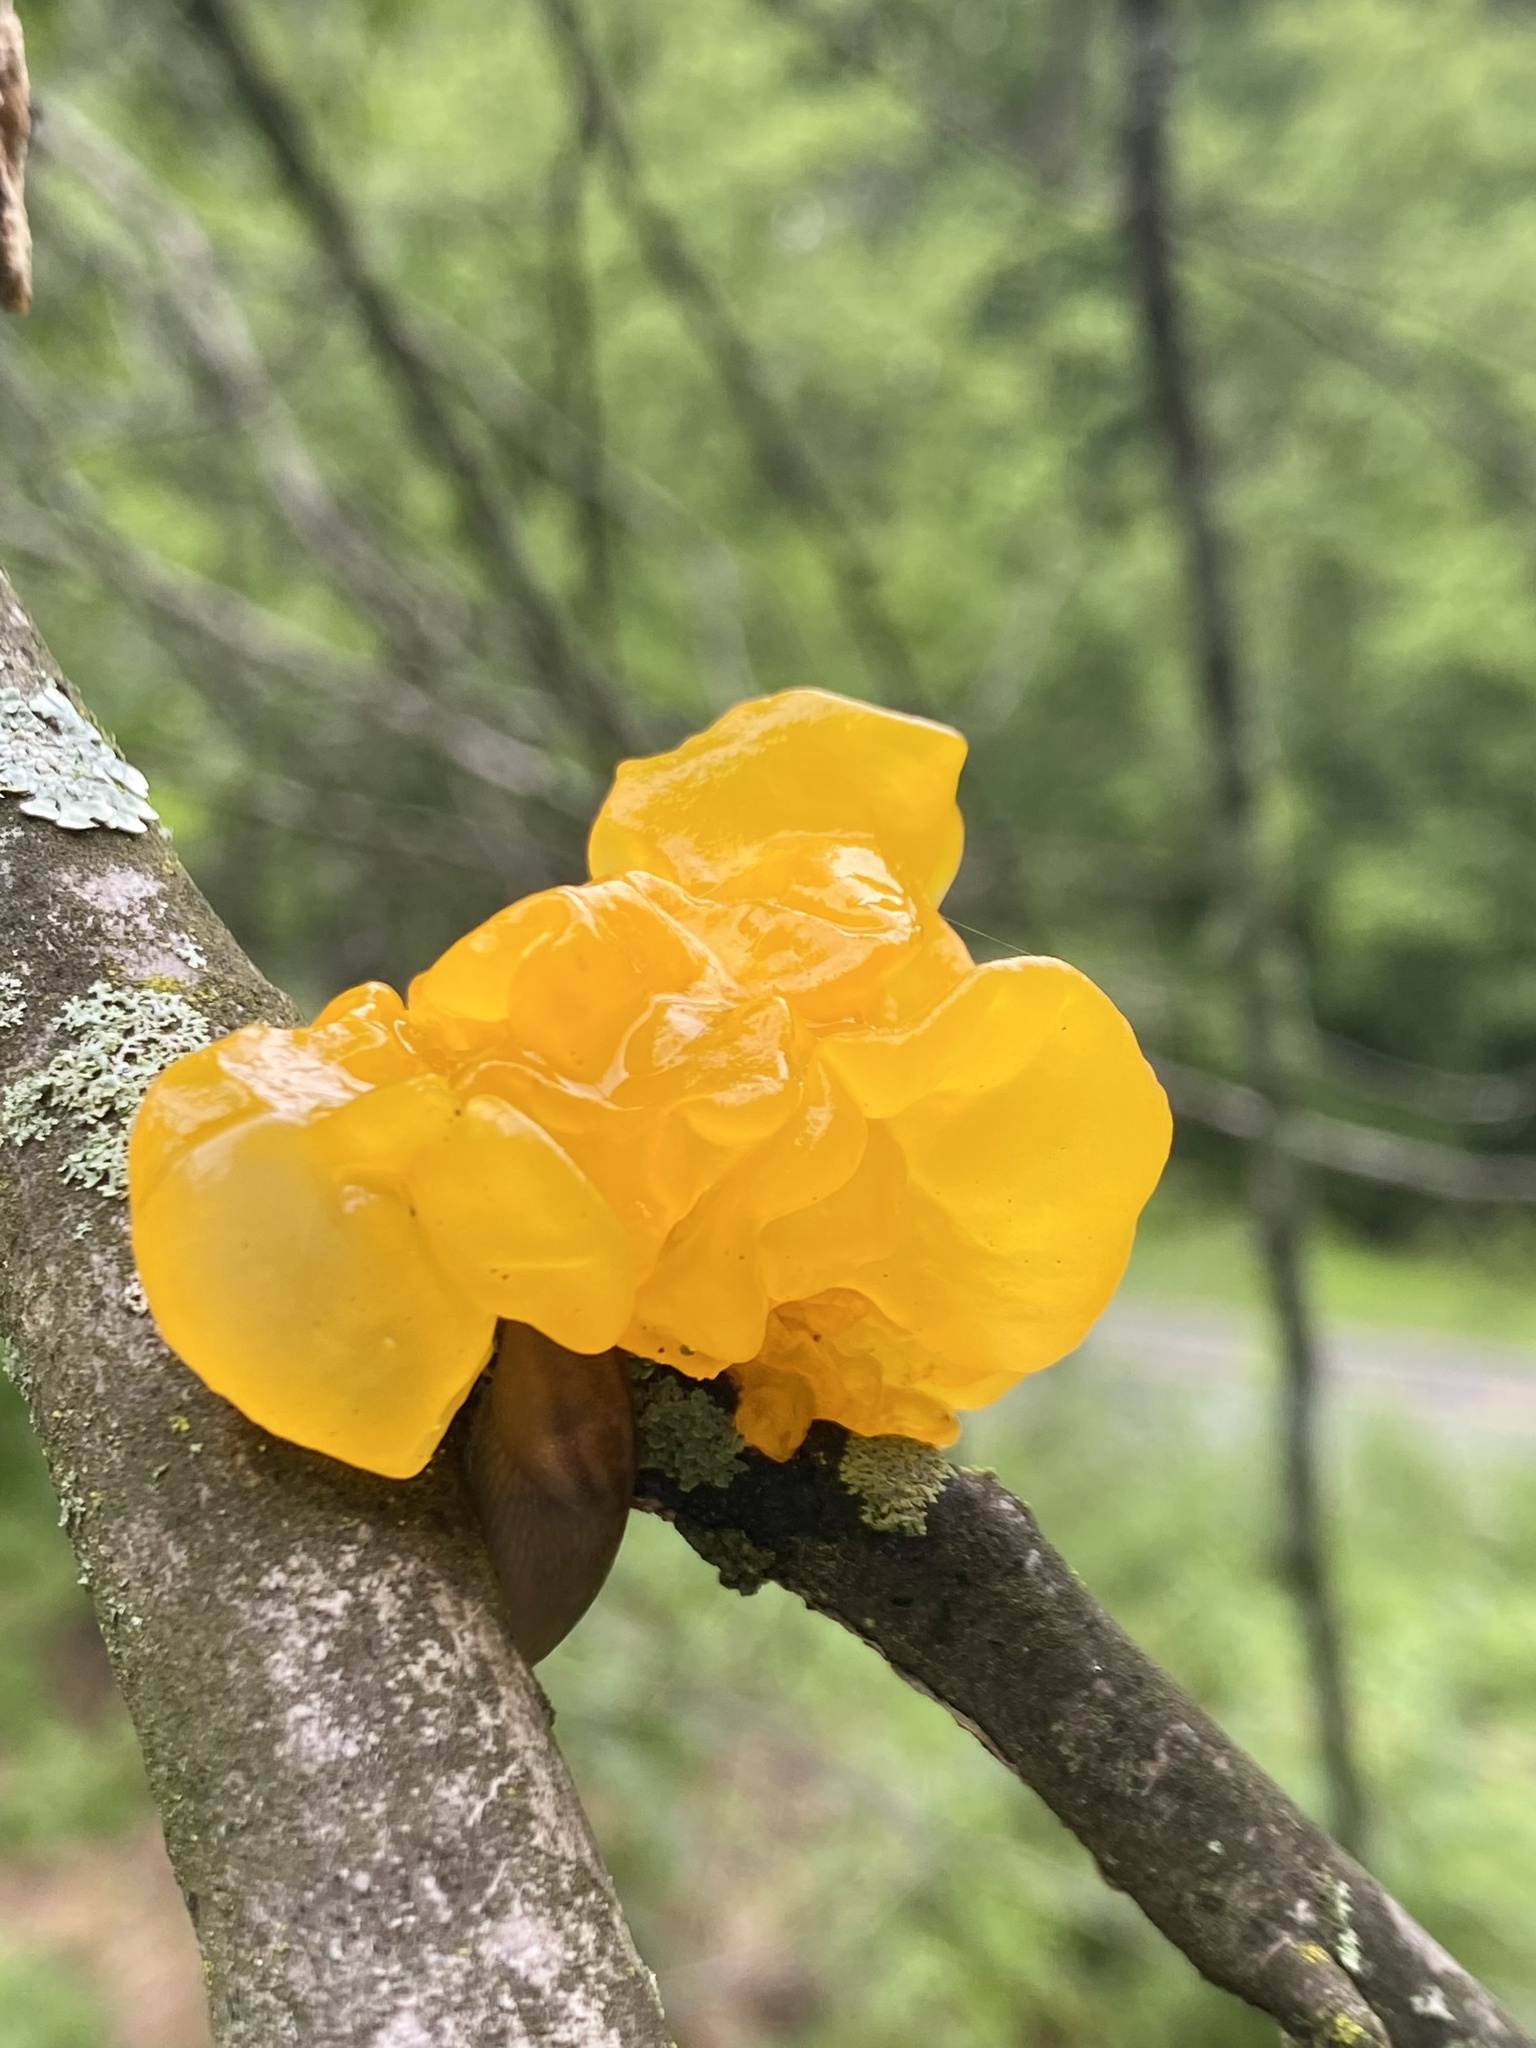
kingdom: Fungi
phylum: Basidiomycota
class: Tremellomycetes
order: Tremellales
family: Tremellaceae
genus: Tremella
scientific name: Tremella mesenterica
